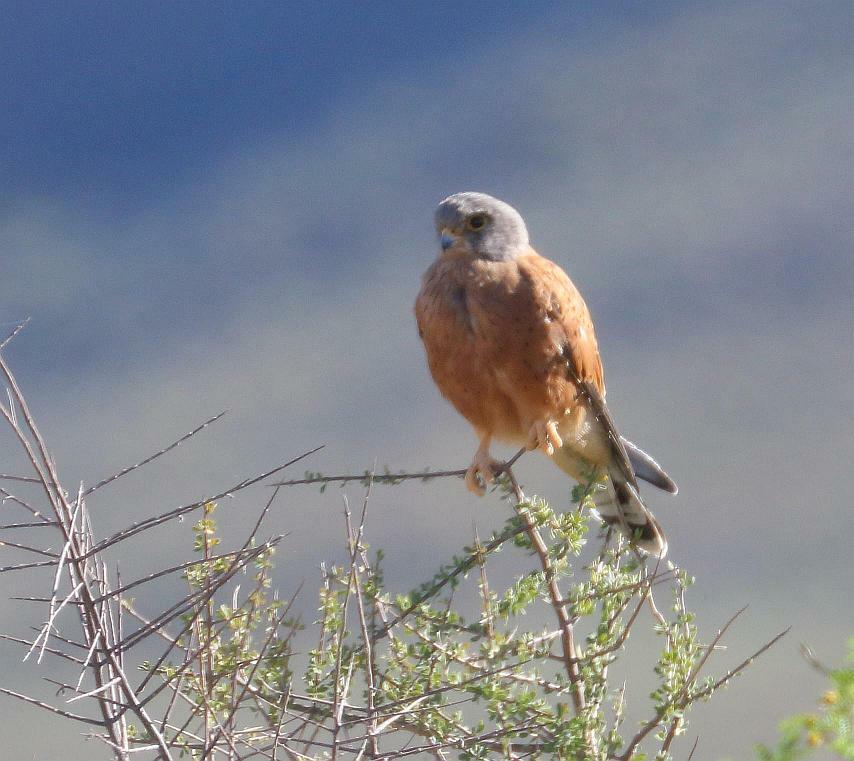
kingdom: Animalia
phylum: Chordata
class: Aves
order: Falconiformes
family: Falconidae
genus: Falco
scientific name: Falco rupicolus
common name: Rock kestrel
